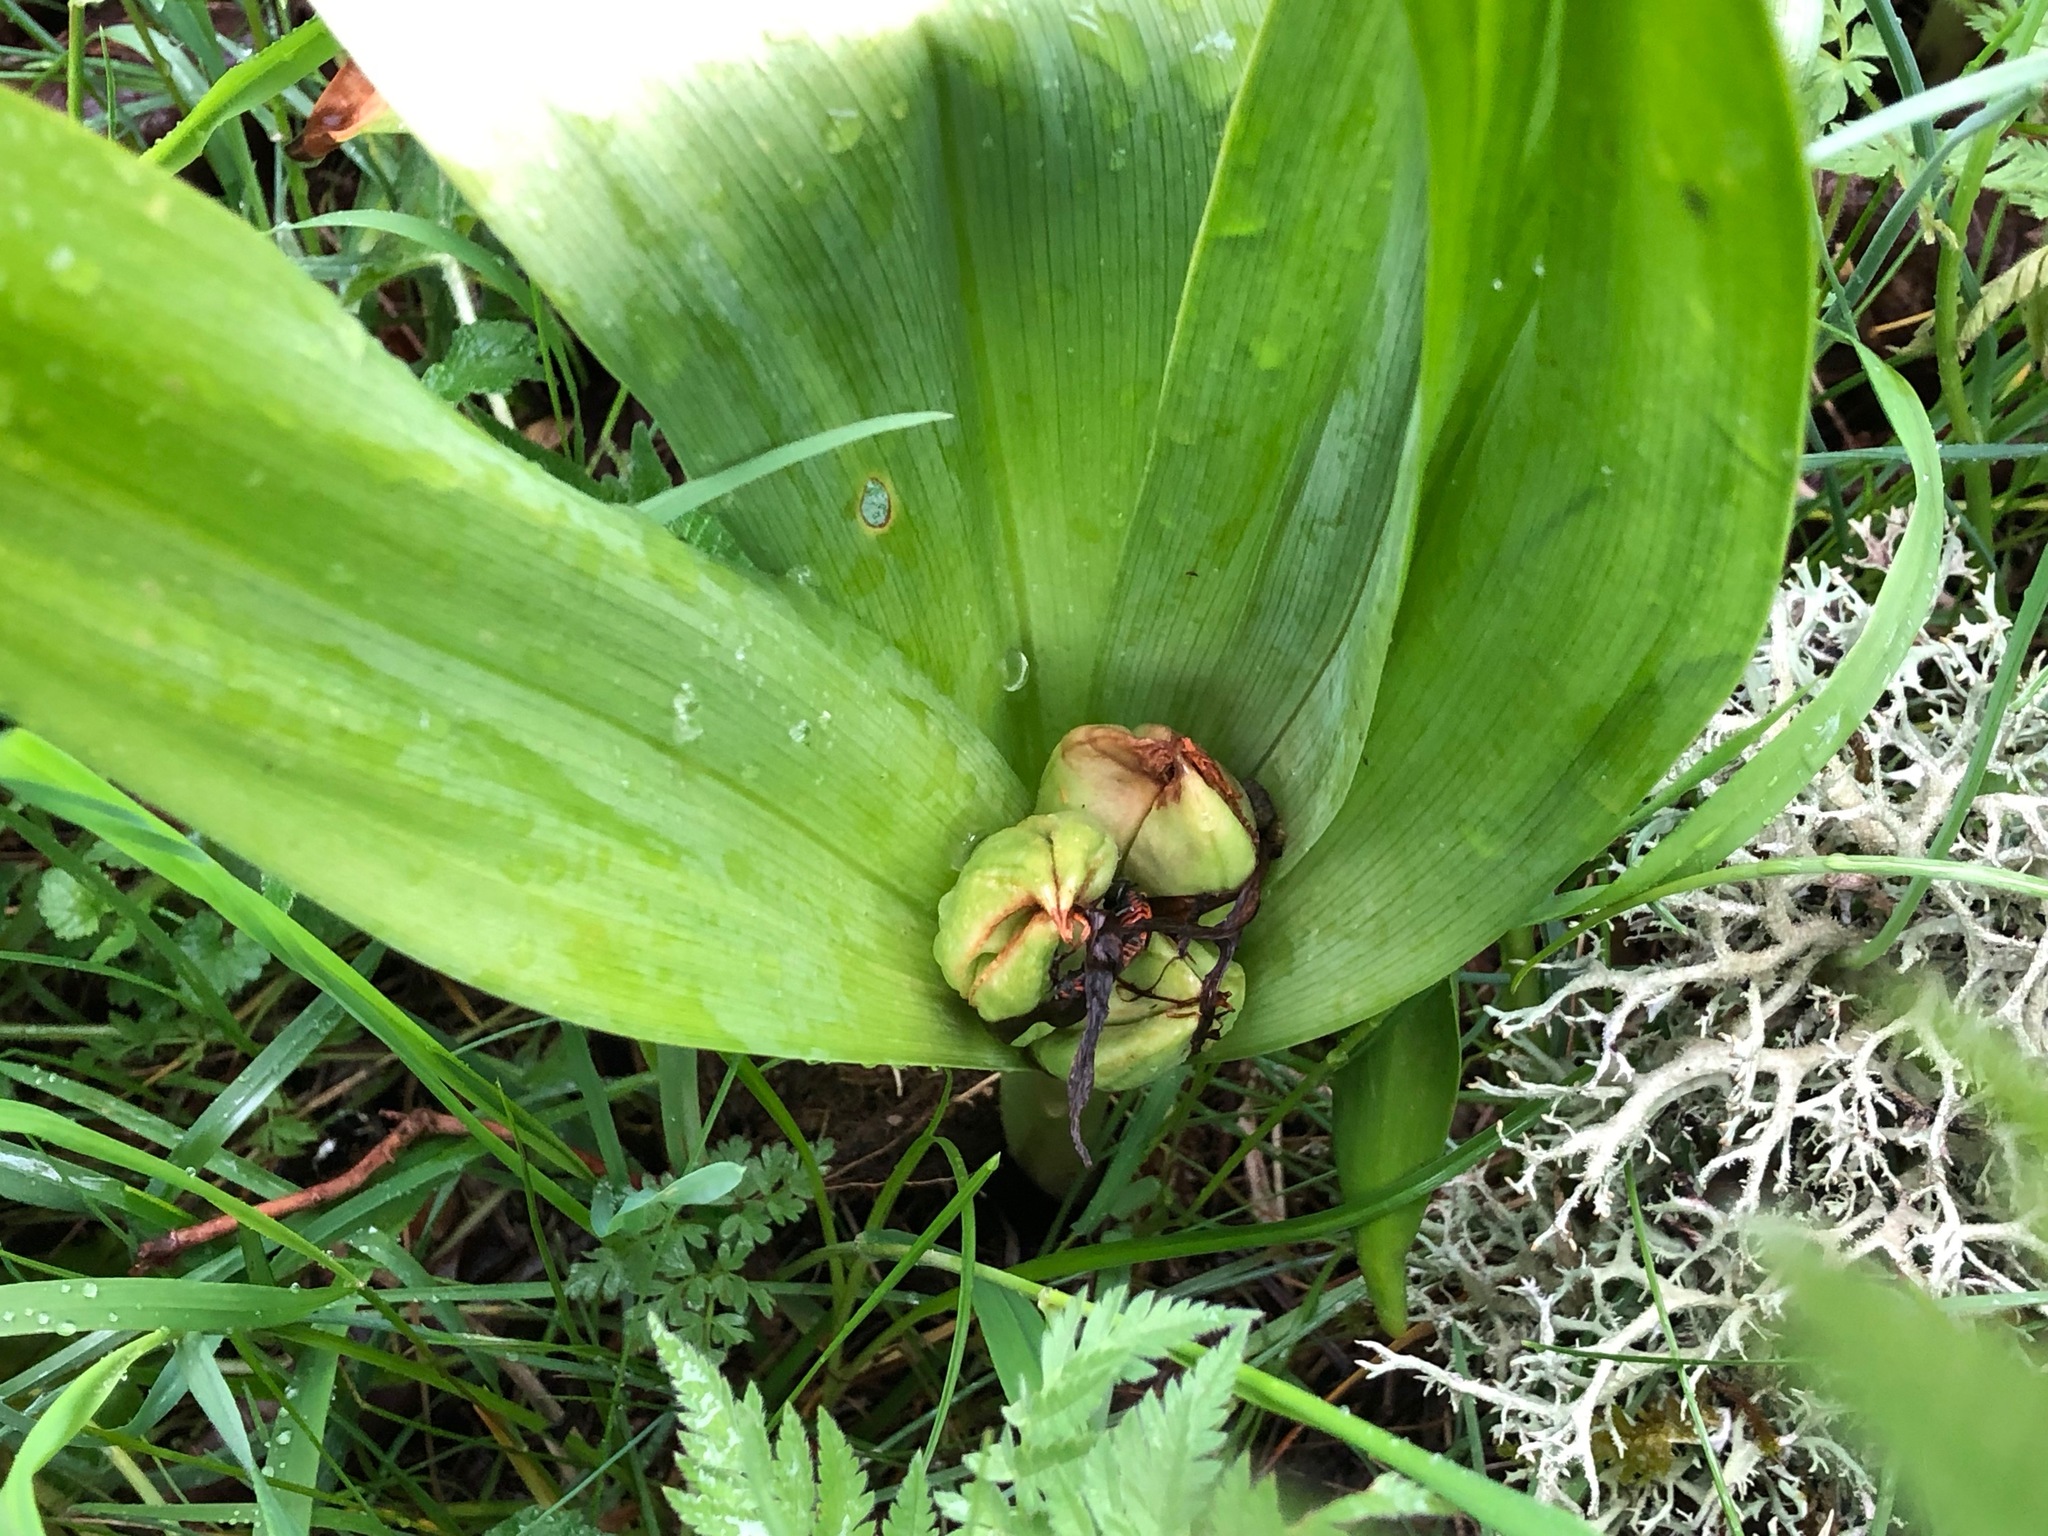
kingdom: Plantae
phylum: Tracheophyta
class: Liliopsida
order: Liliales
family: Colchicaceae
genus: Colchicum
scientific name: Colchicum autumnale
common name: Autumn crocus
